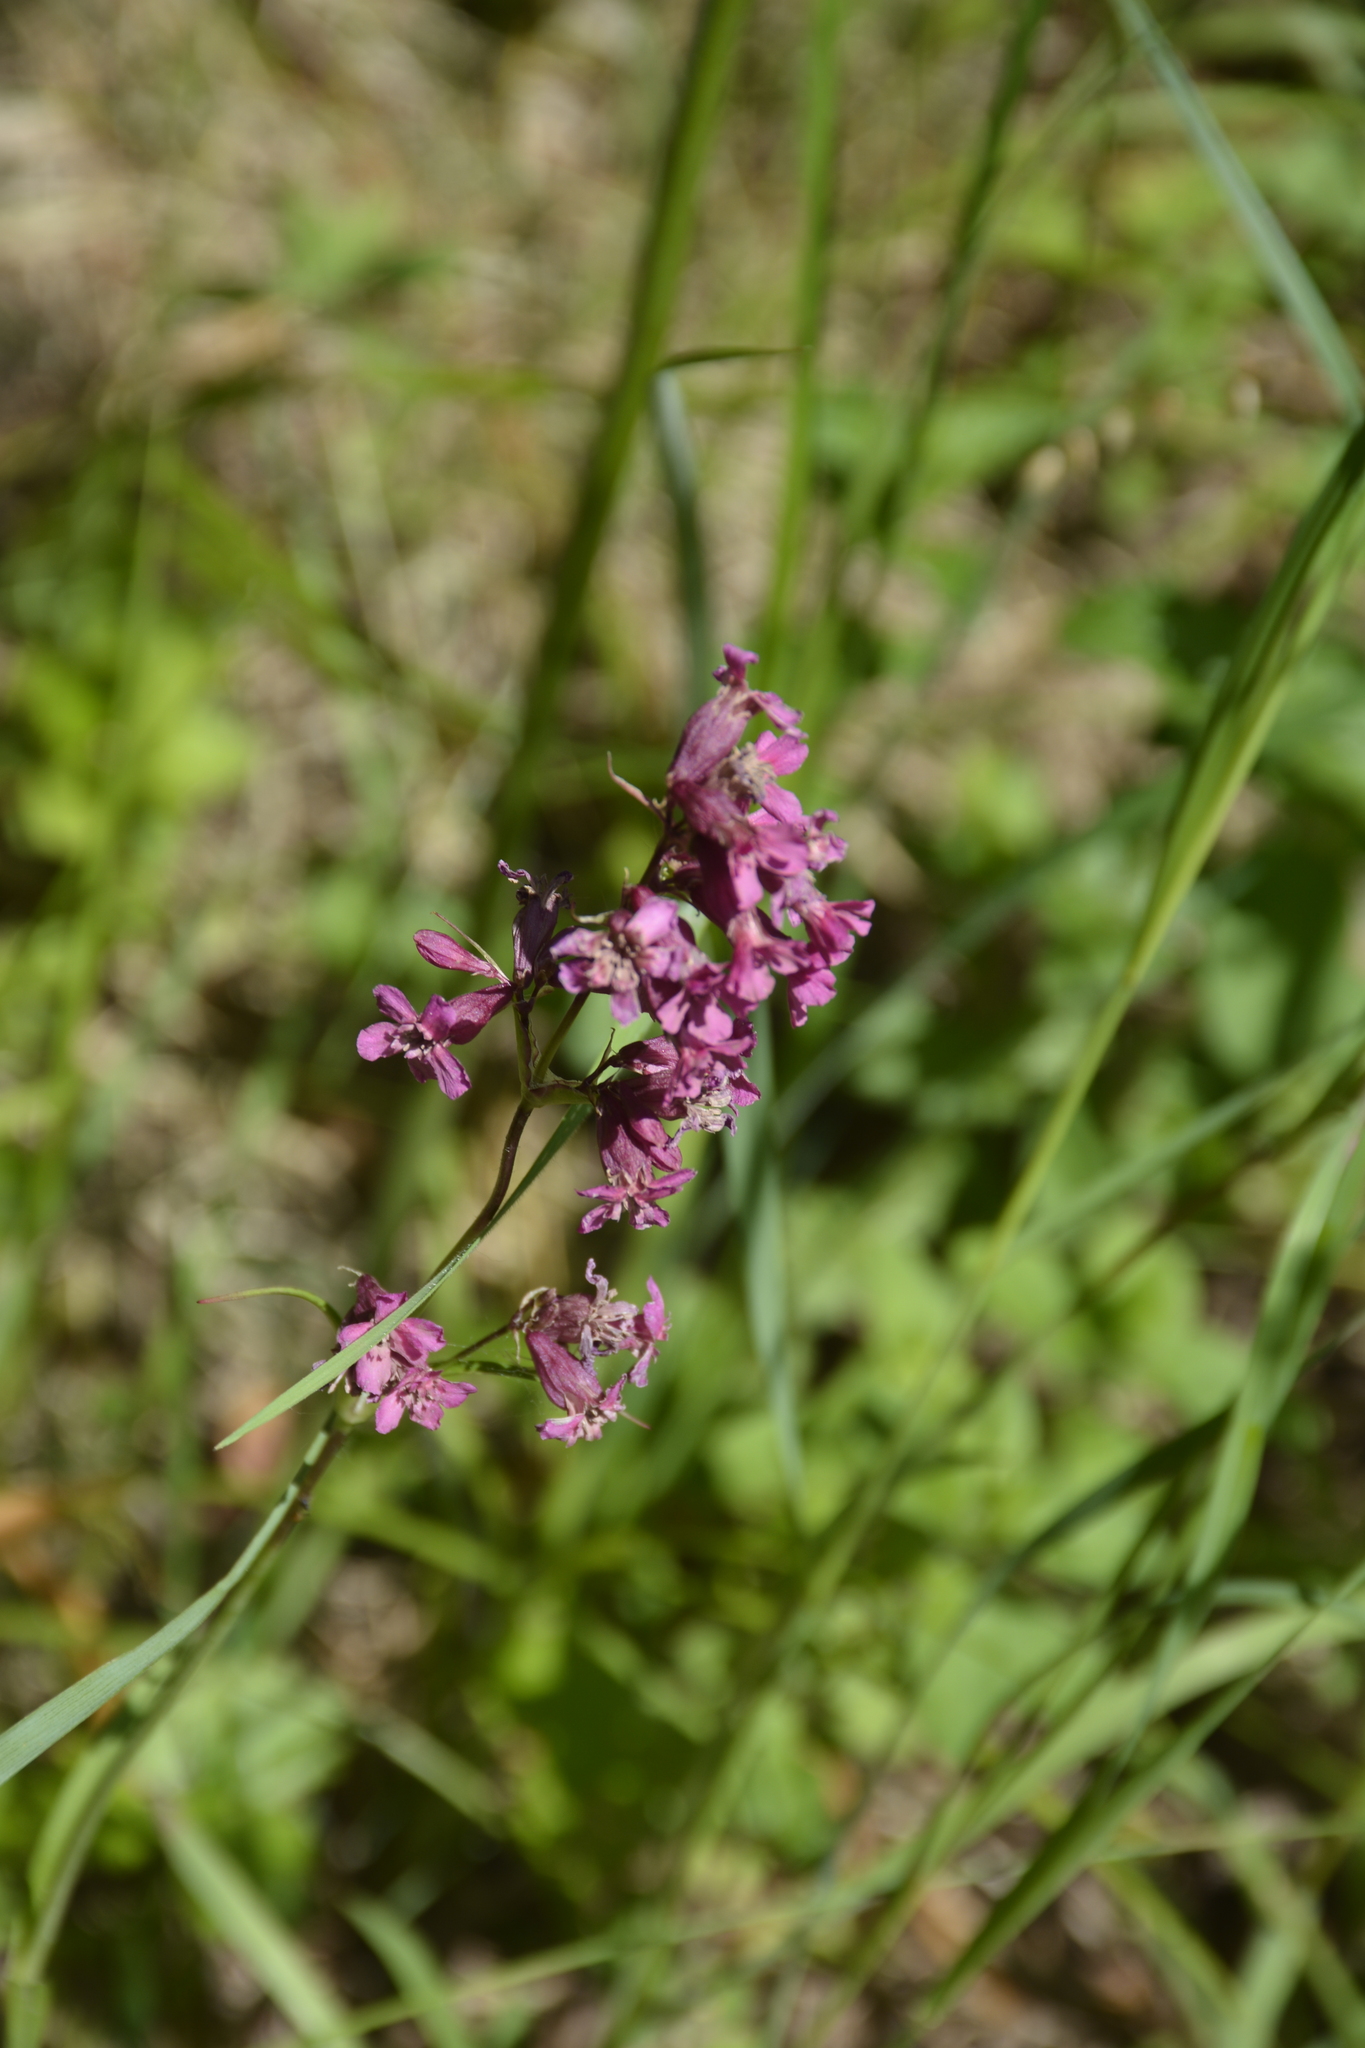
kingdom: Plantae
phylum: Tracheophyta
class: Magnoliopsida
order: Caryophyllales
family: Caryophyllaceae
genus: Viscaria
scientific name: Viscaria vulgaris
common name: Clammy campion
